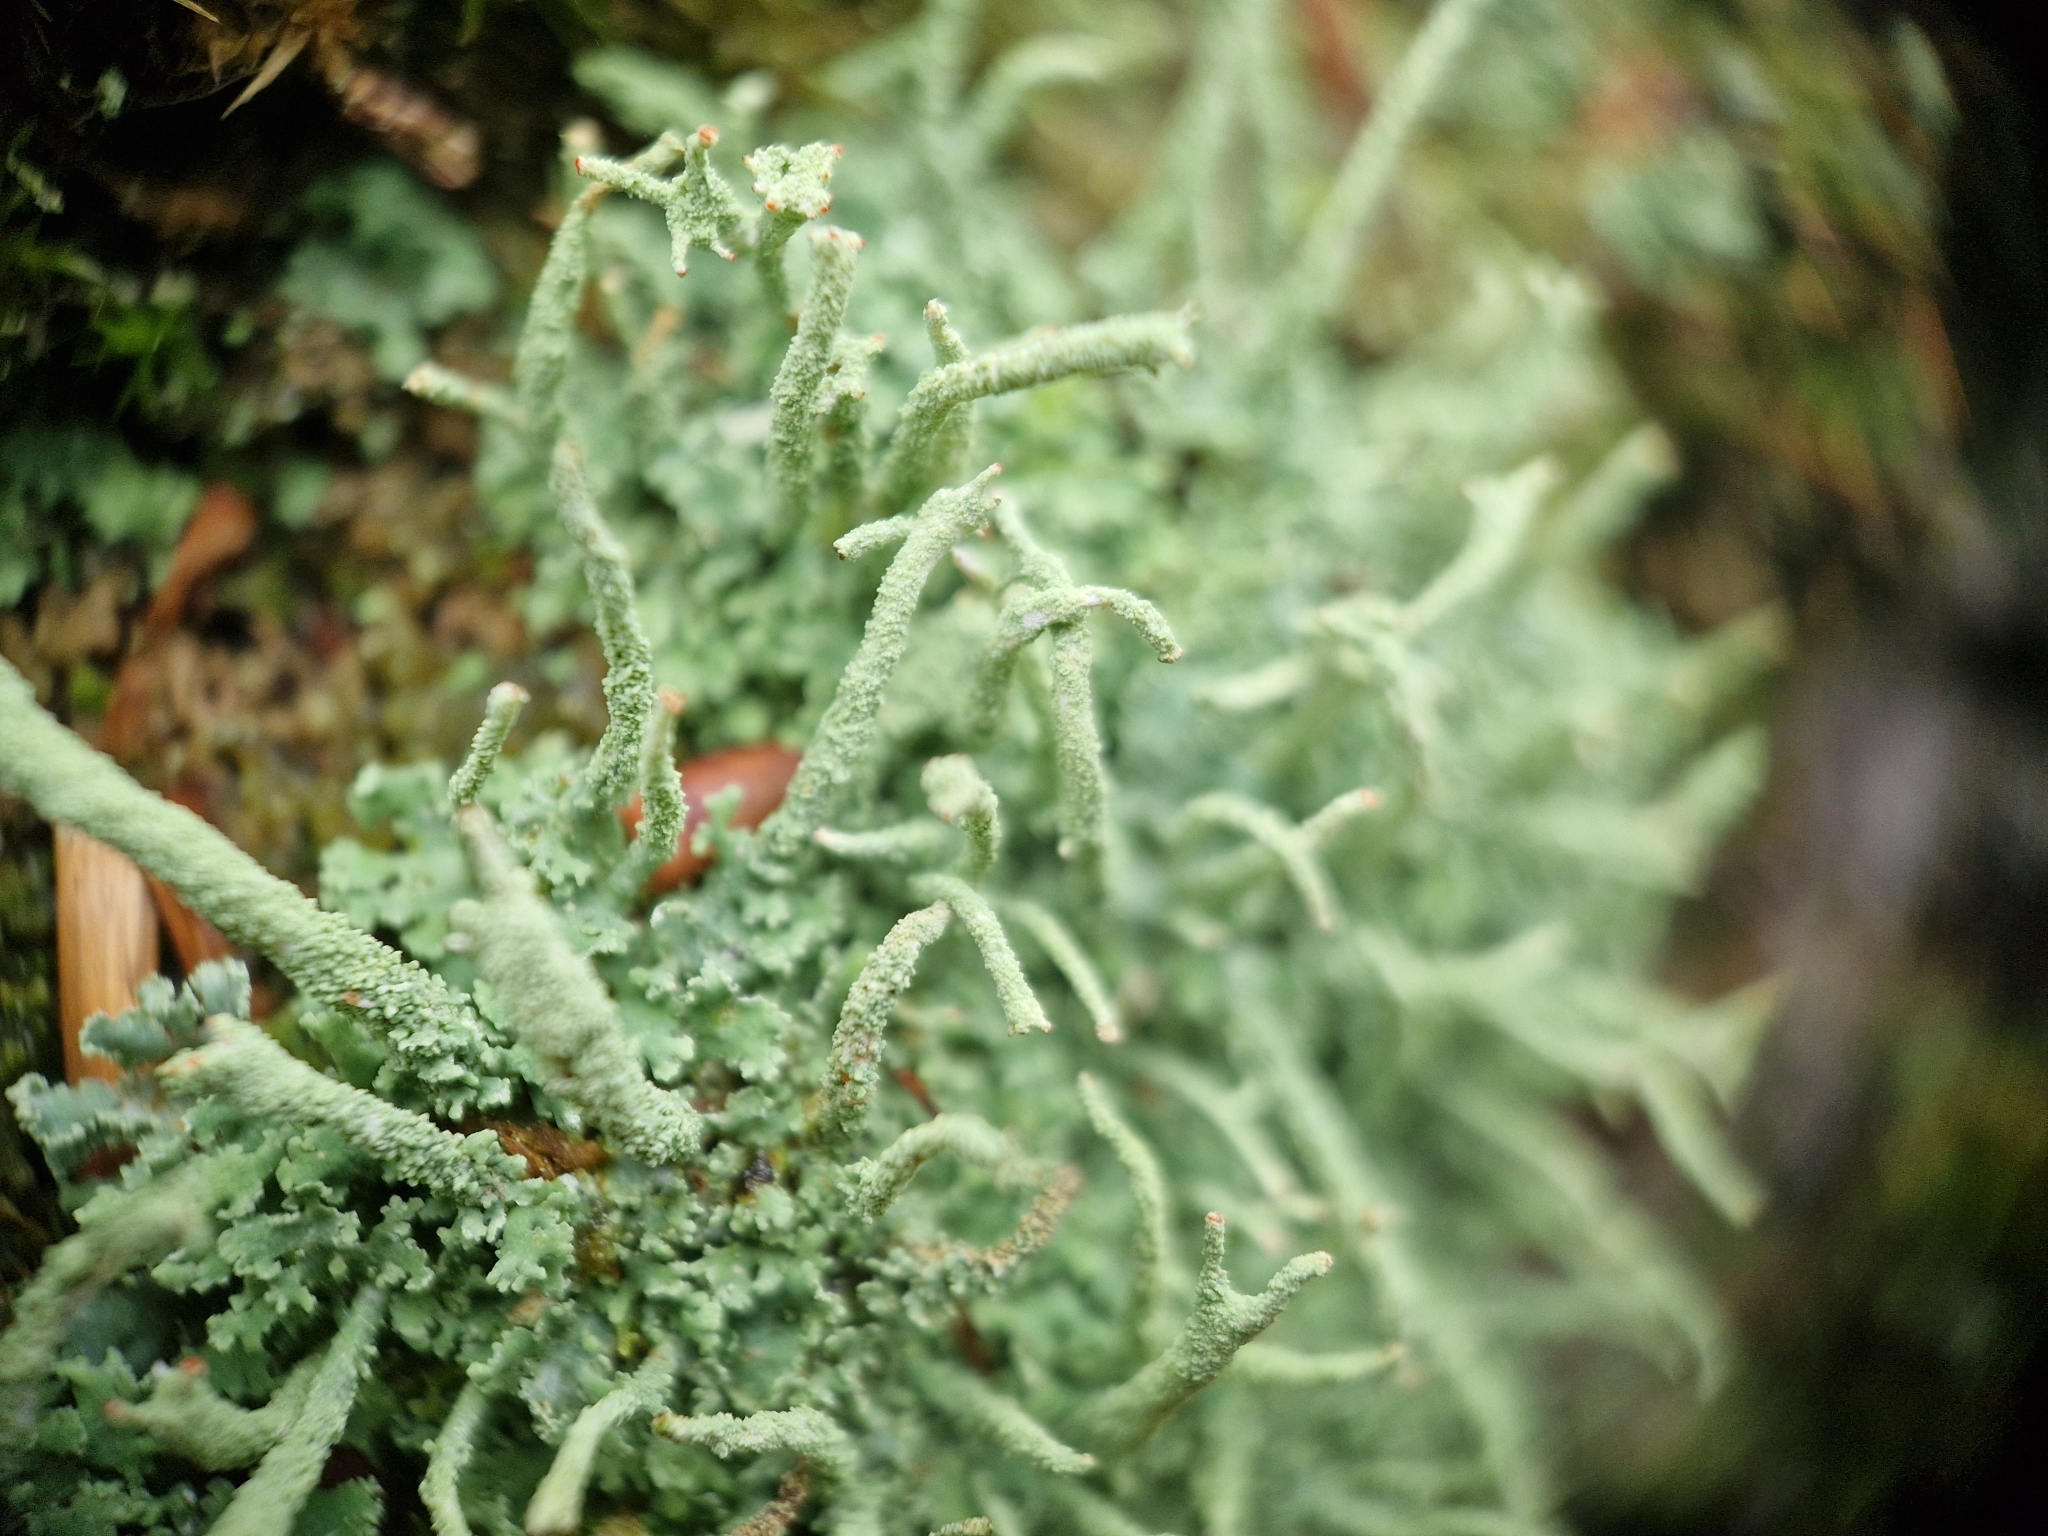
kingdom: Fungi
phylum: Ascomycota
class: Lecanoromycetes
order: Lecanorales
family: Cladoniaceae
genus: Cladonia
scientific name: Cladonia polydactyla
